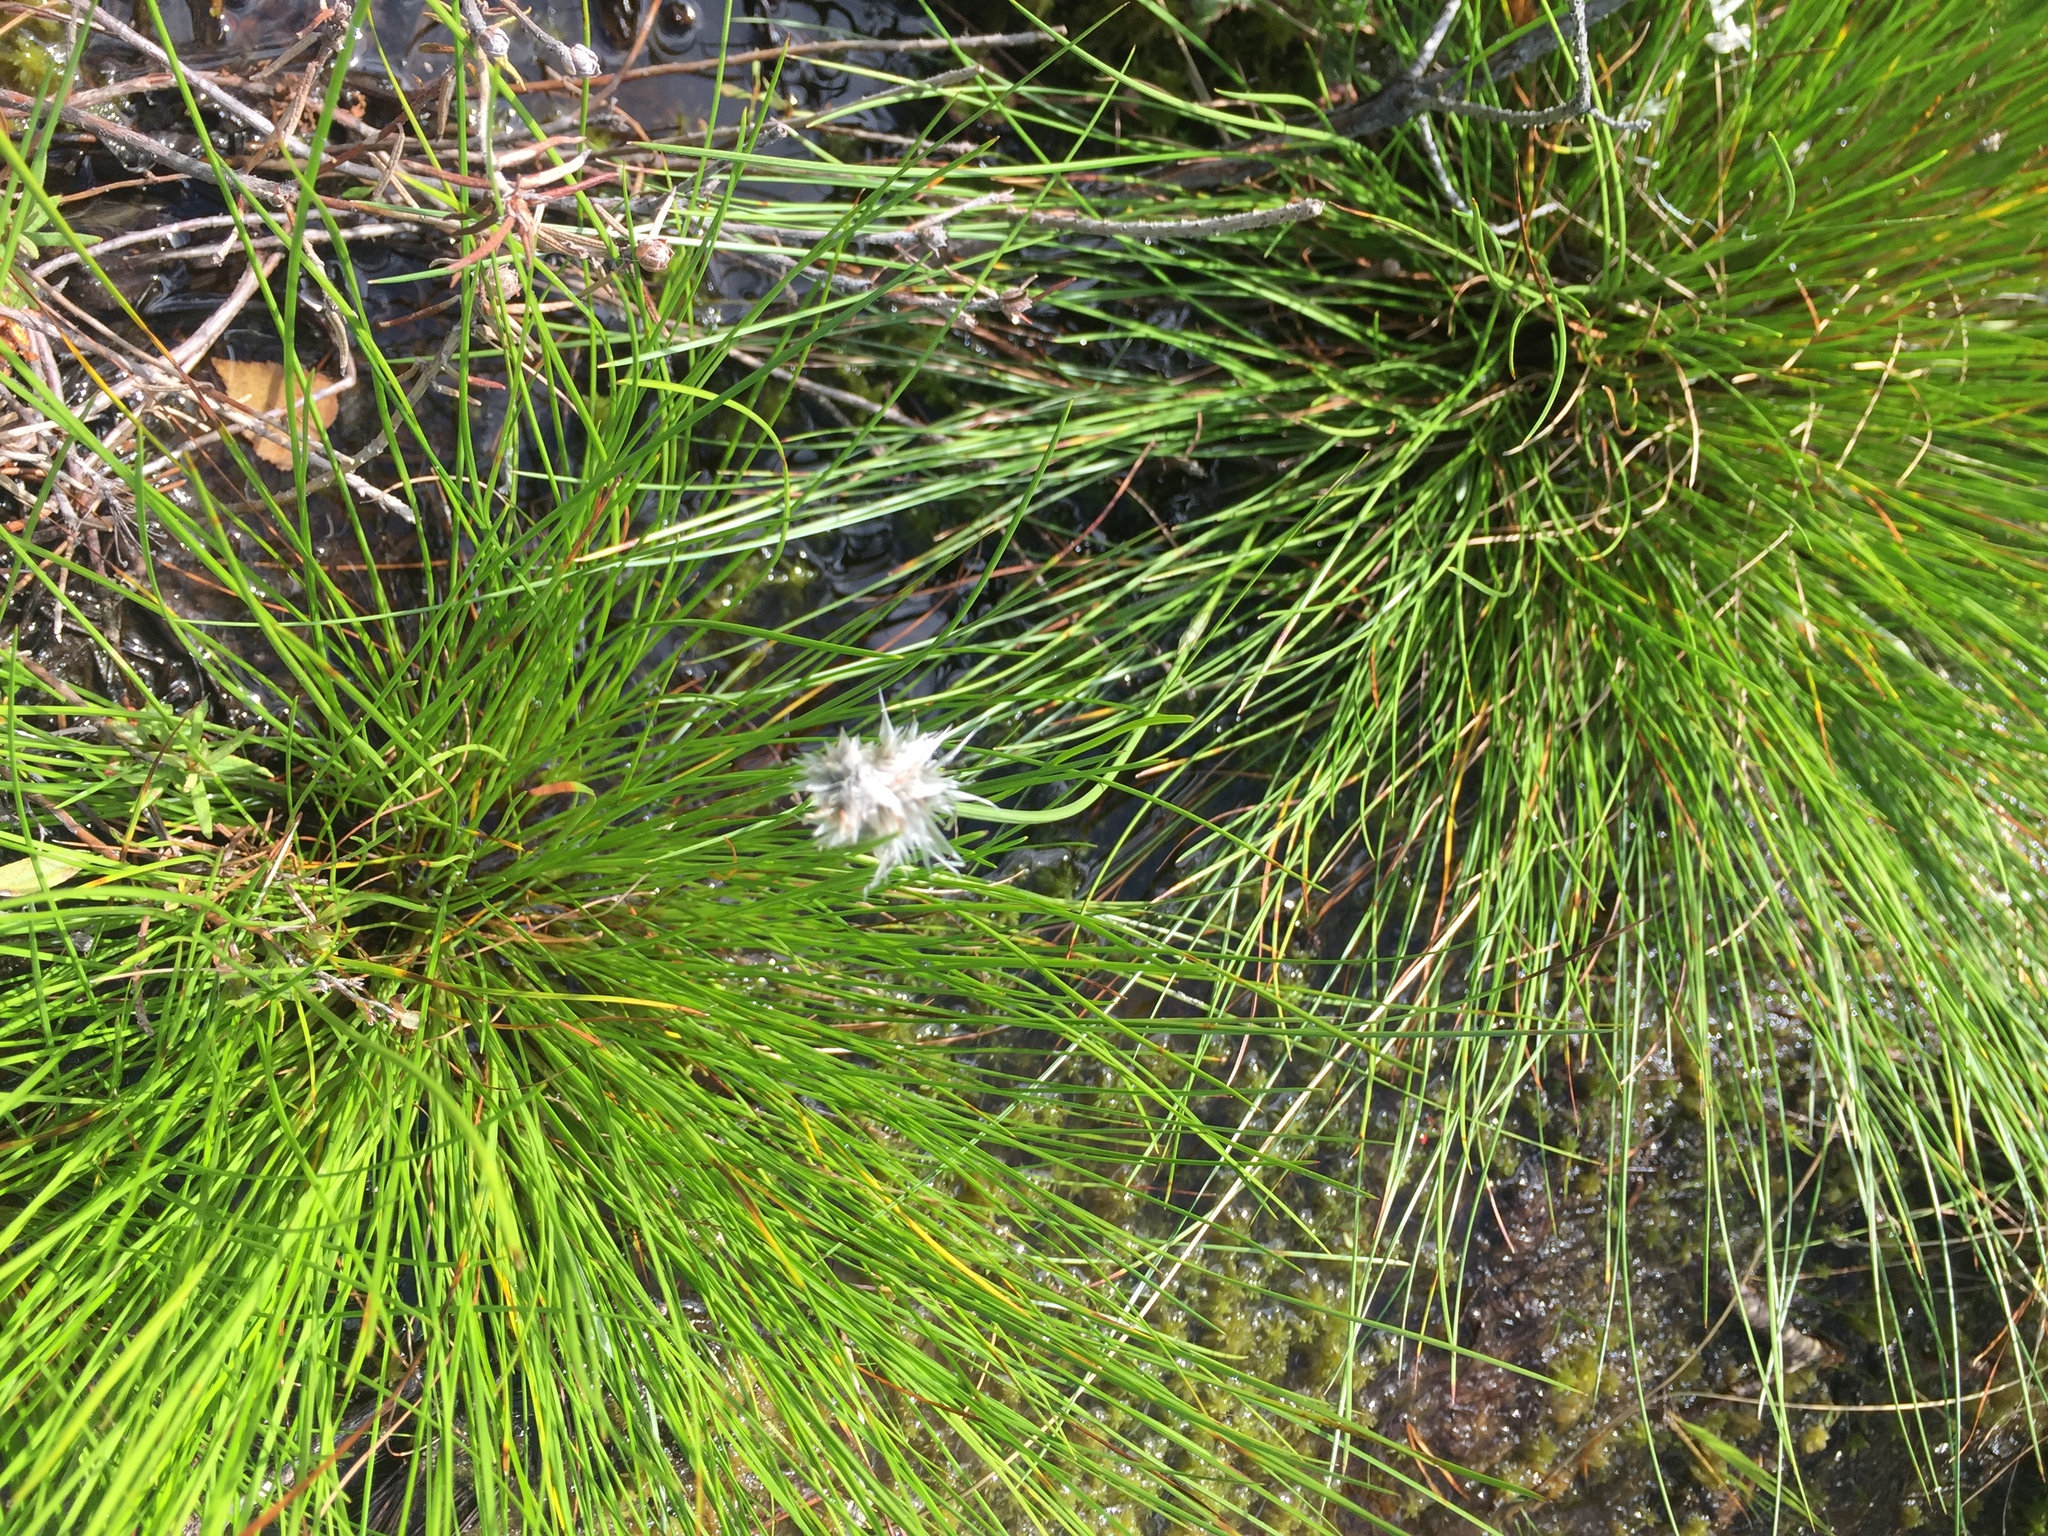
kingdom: Plantae
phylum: Tracheophyta
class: Liliopsida
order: Poales
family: Cyperaceae
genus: Eriophorum
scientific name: Eriophorum vaginatum
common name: Hare's-tail cottongrass
